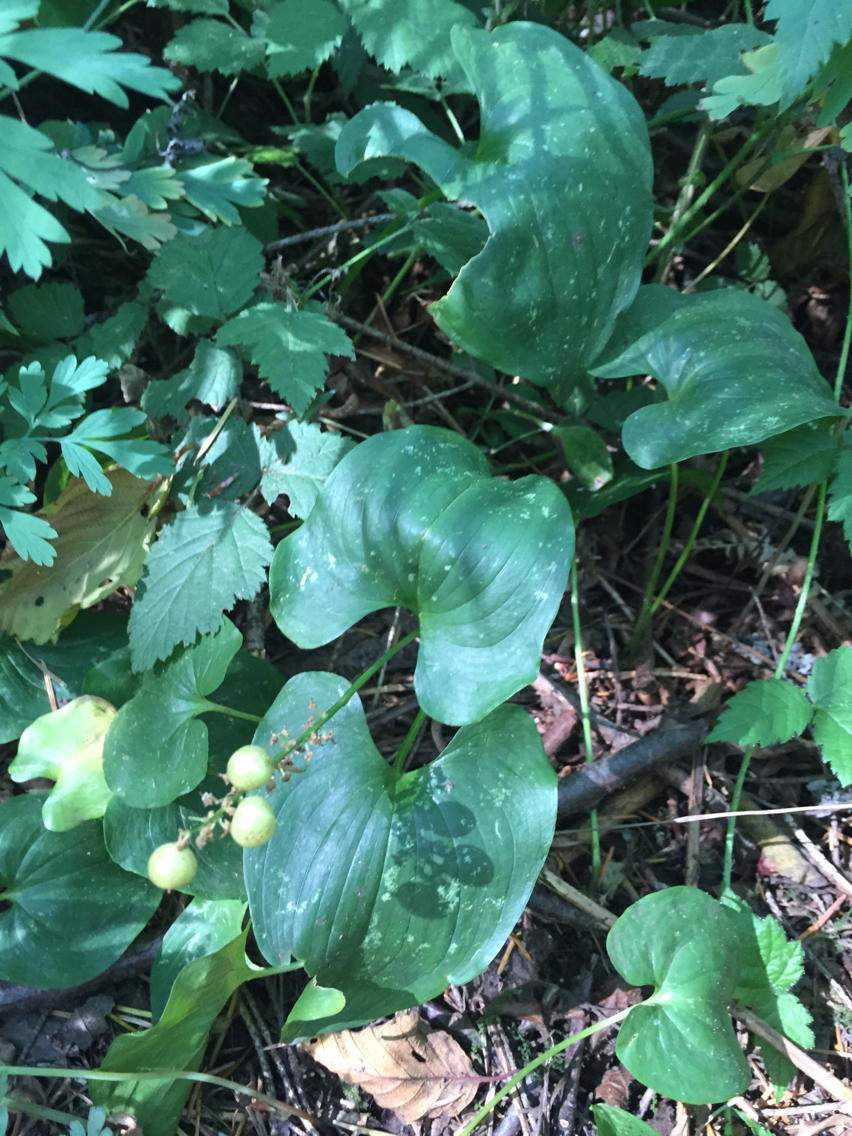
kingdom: Plantae
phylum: Tracheophyta
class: Liliopsida
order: Asparagales
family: Asparagaceae
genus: Maianthemum
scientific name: Maianthemum dilatatum
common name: False lily-of-the-valley
